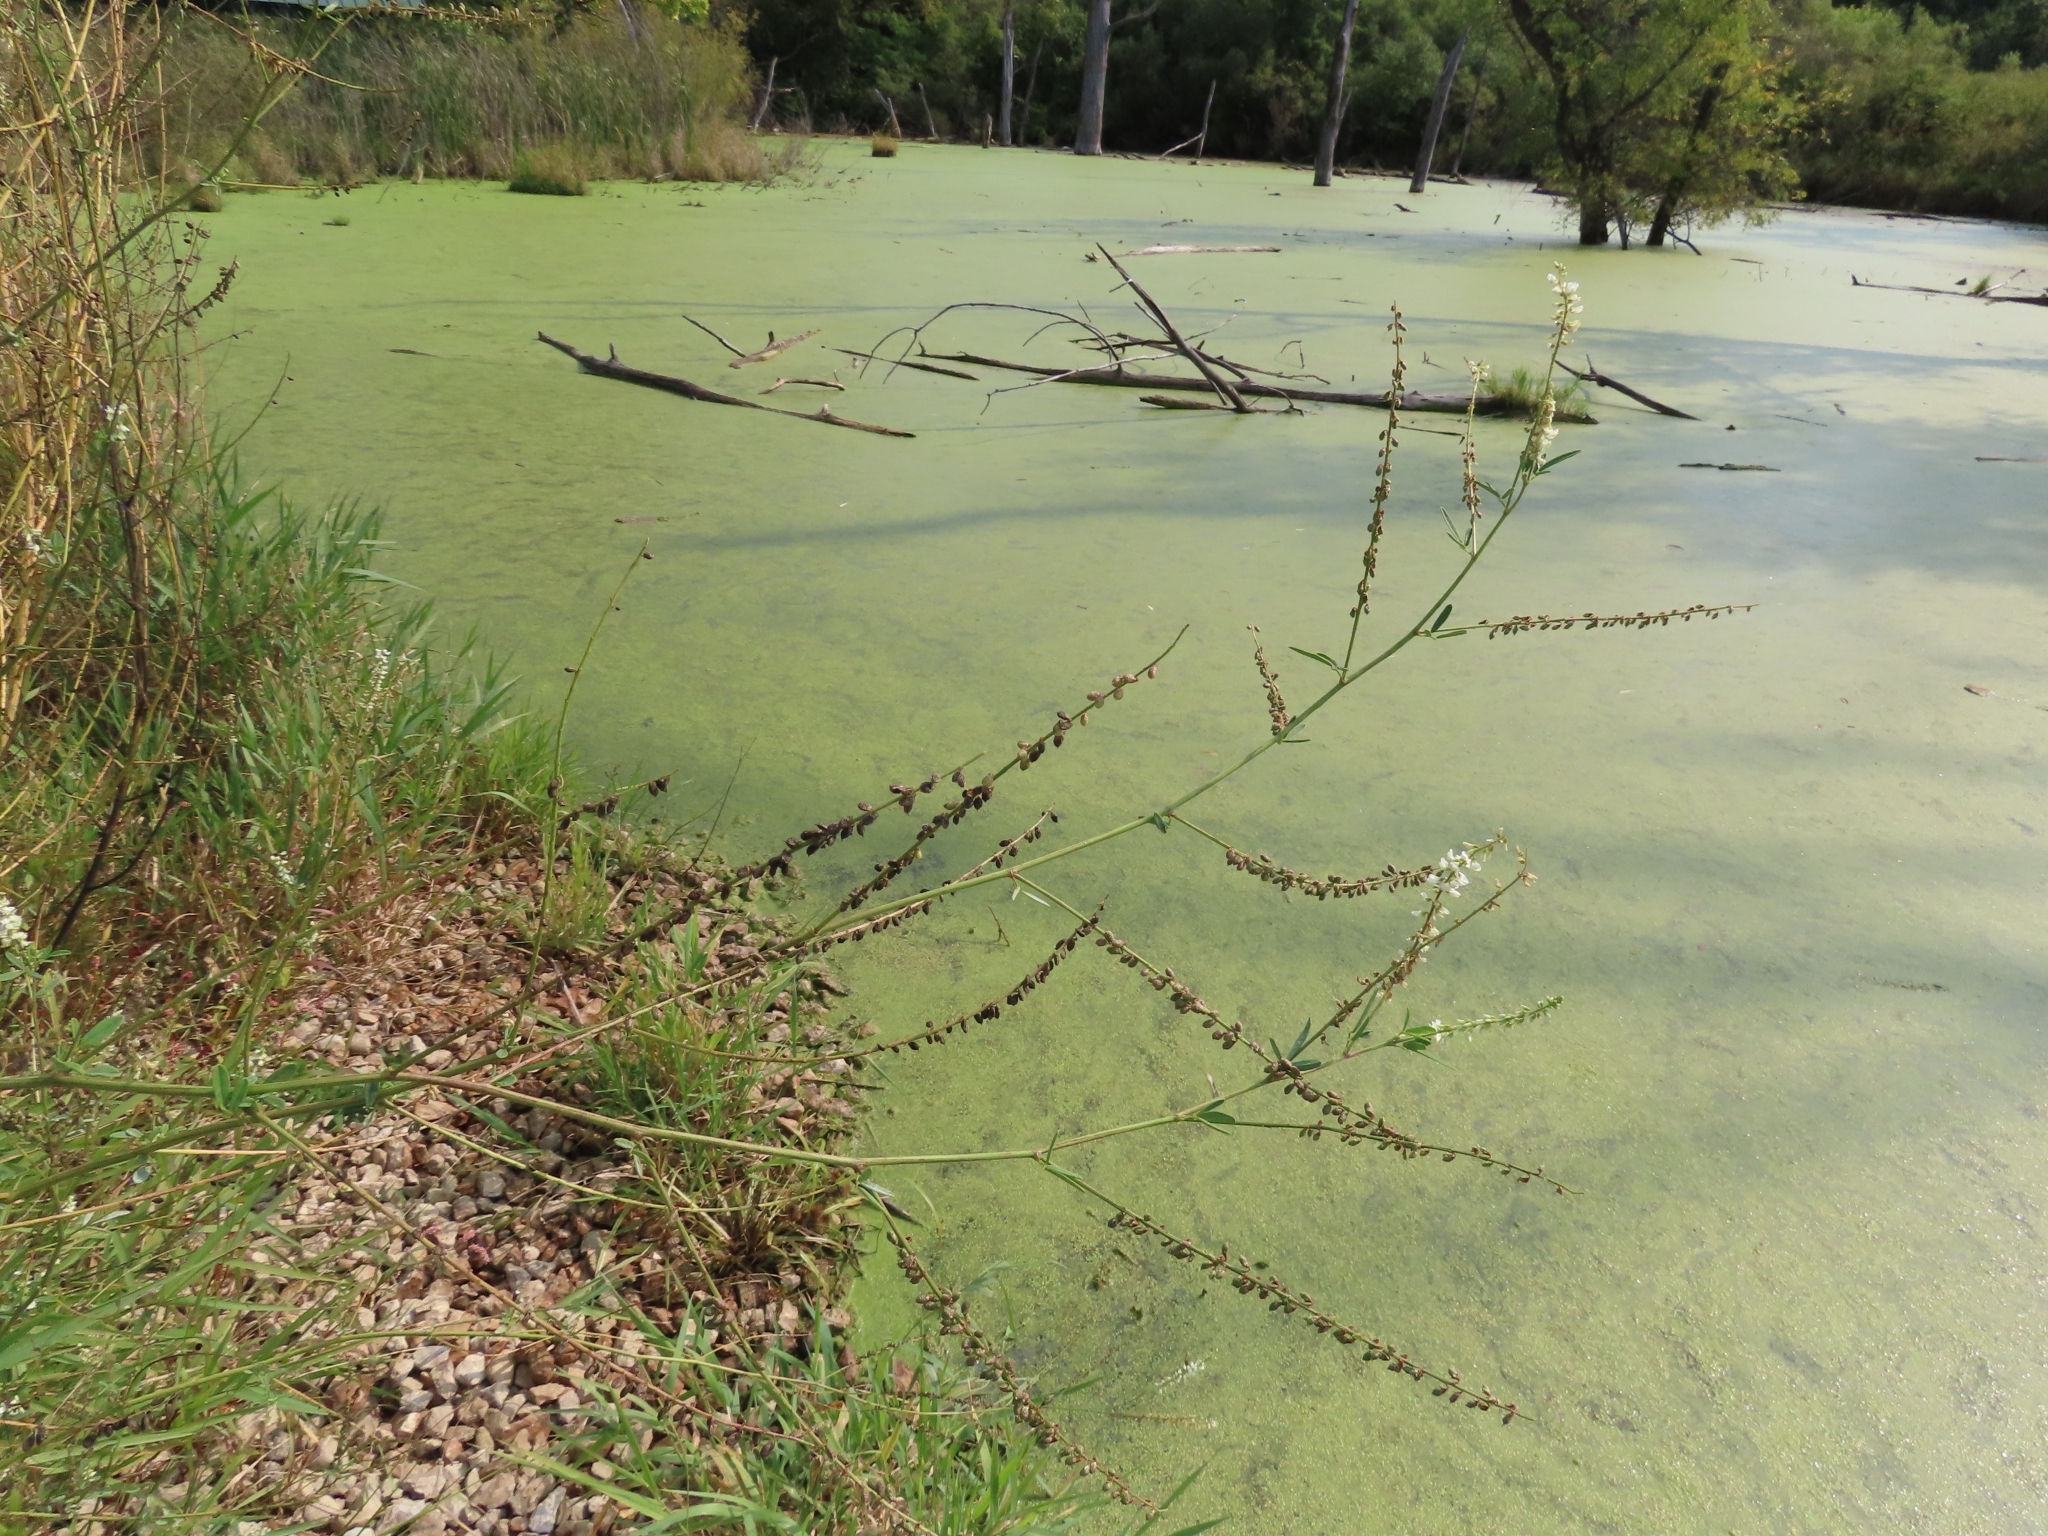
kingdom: Plantae
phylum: Tracheophyta
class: Magnoliopsida
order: Fabales
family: Fabaceae
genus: Melilotus
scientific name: Melilotus albus
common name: White melilot
